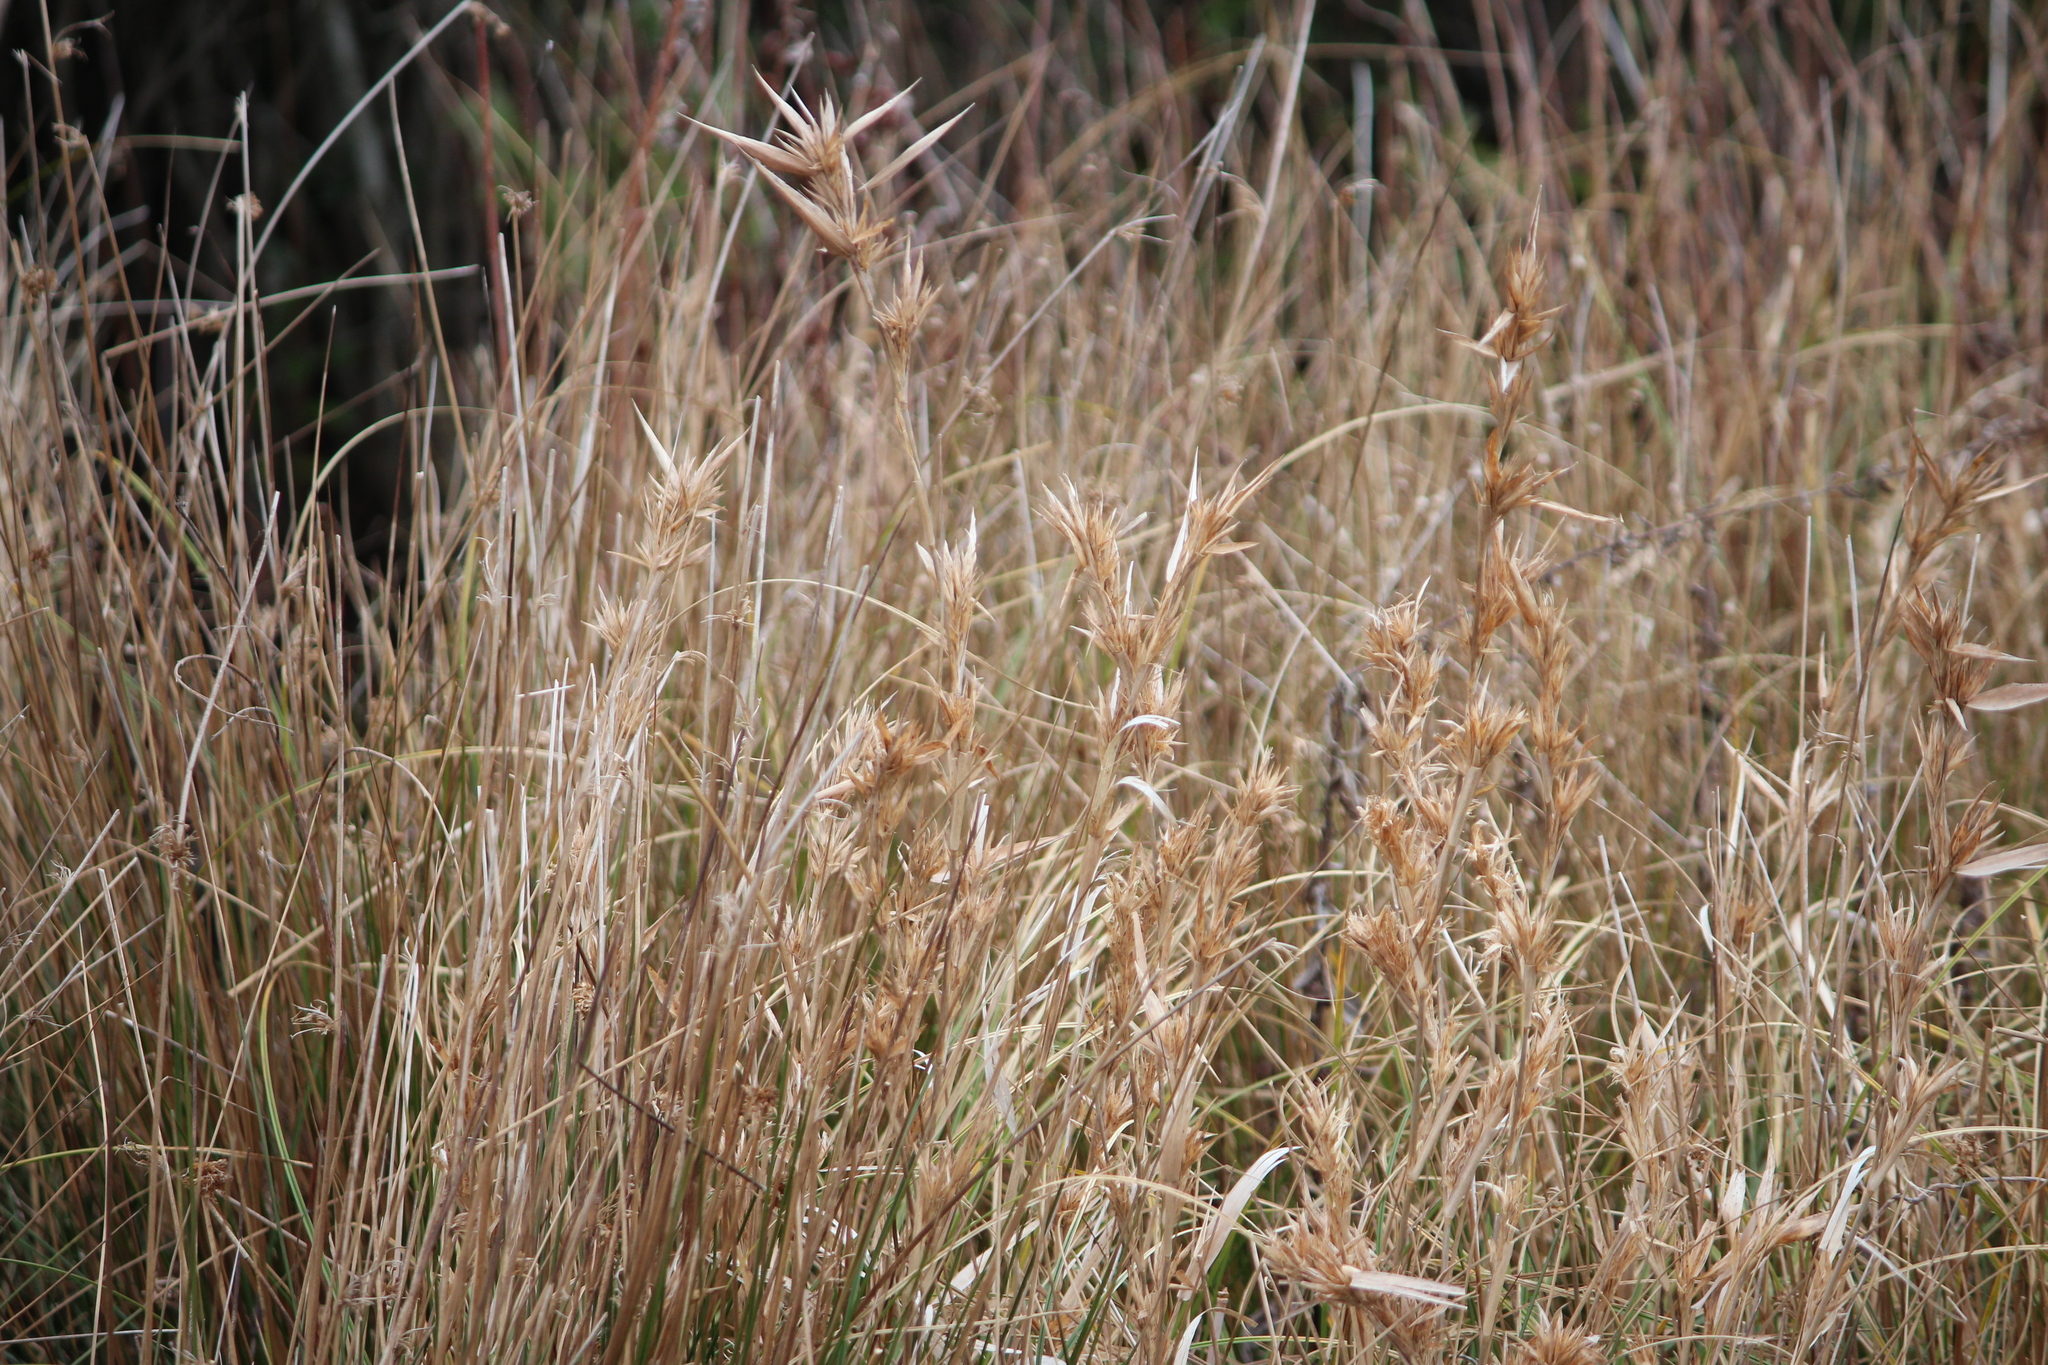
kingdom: Plantae
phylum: Tracheophyta
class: Liliopsida
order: Poales
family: Poaceae
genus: Dichanthelium
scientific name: Dichanthelium scabriusculum
